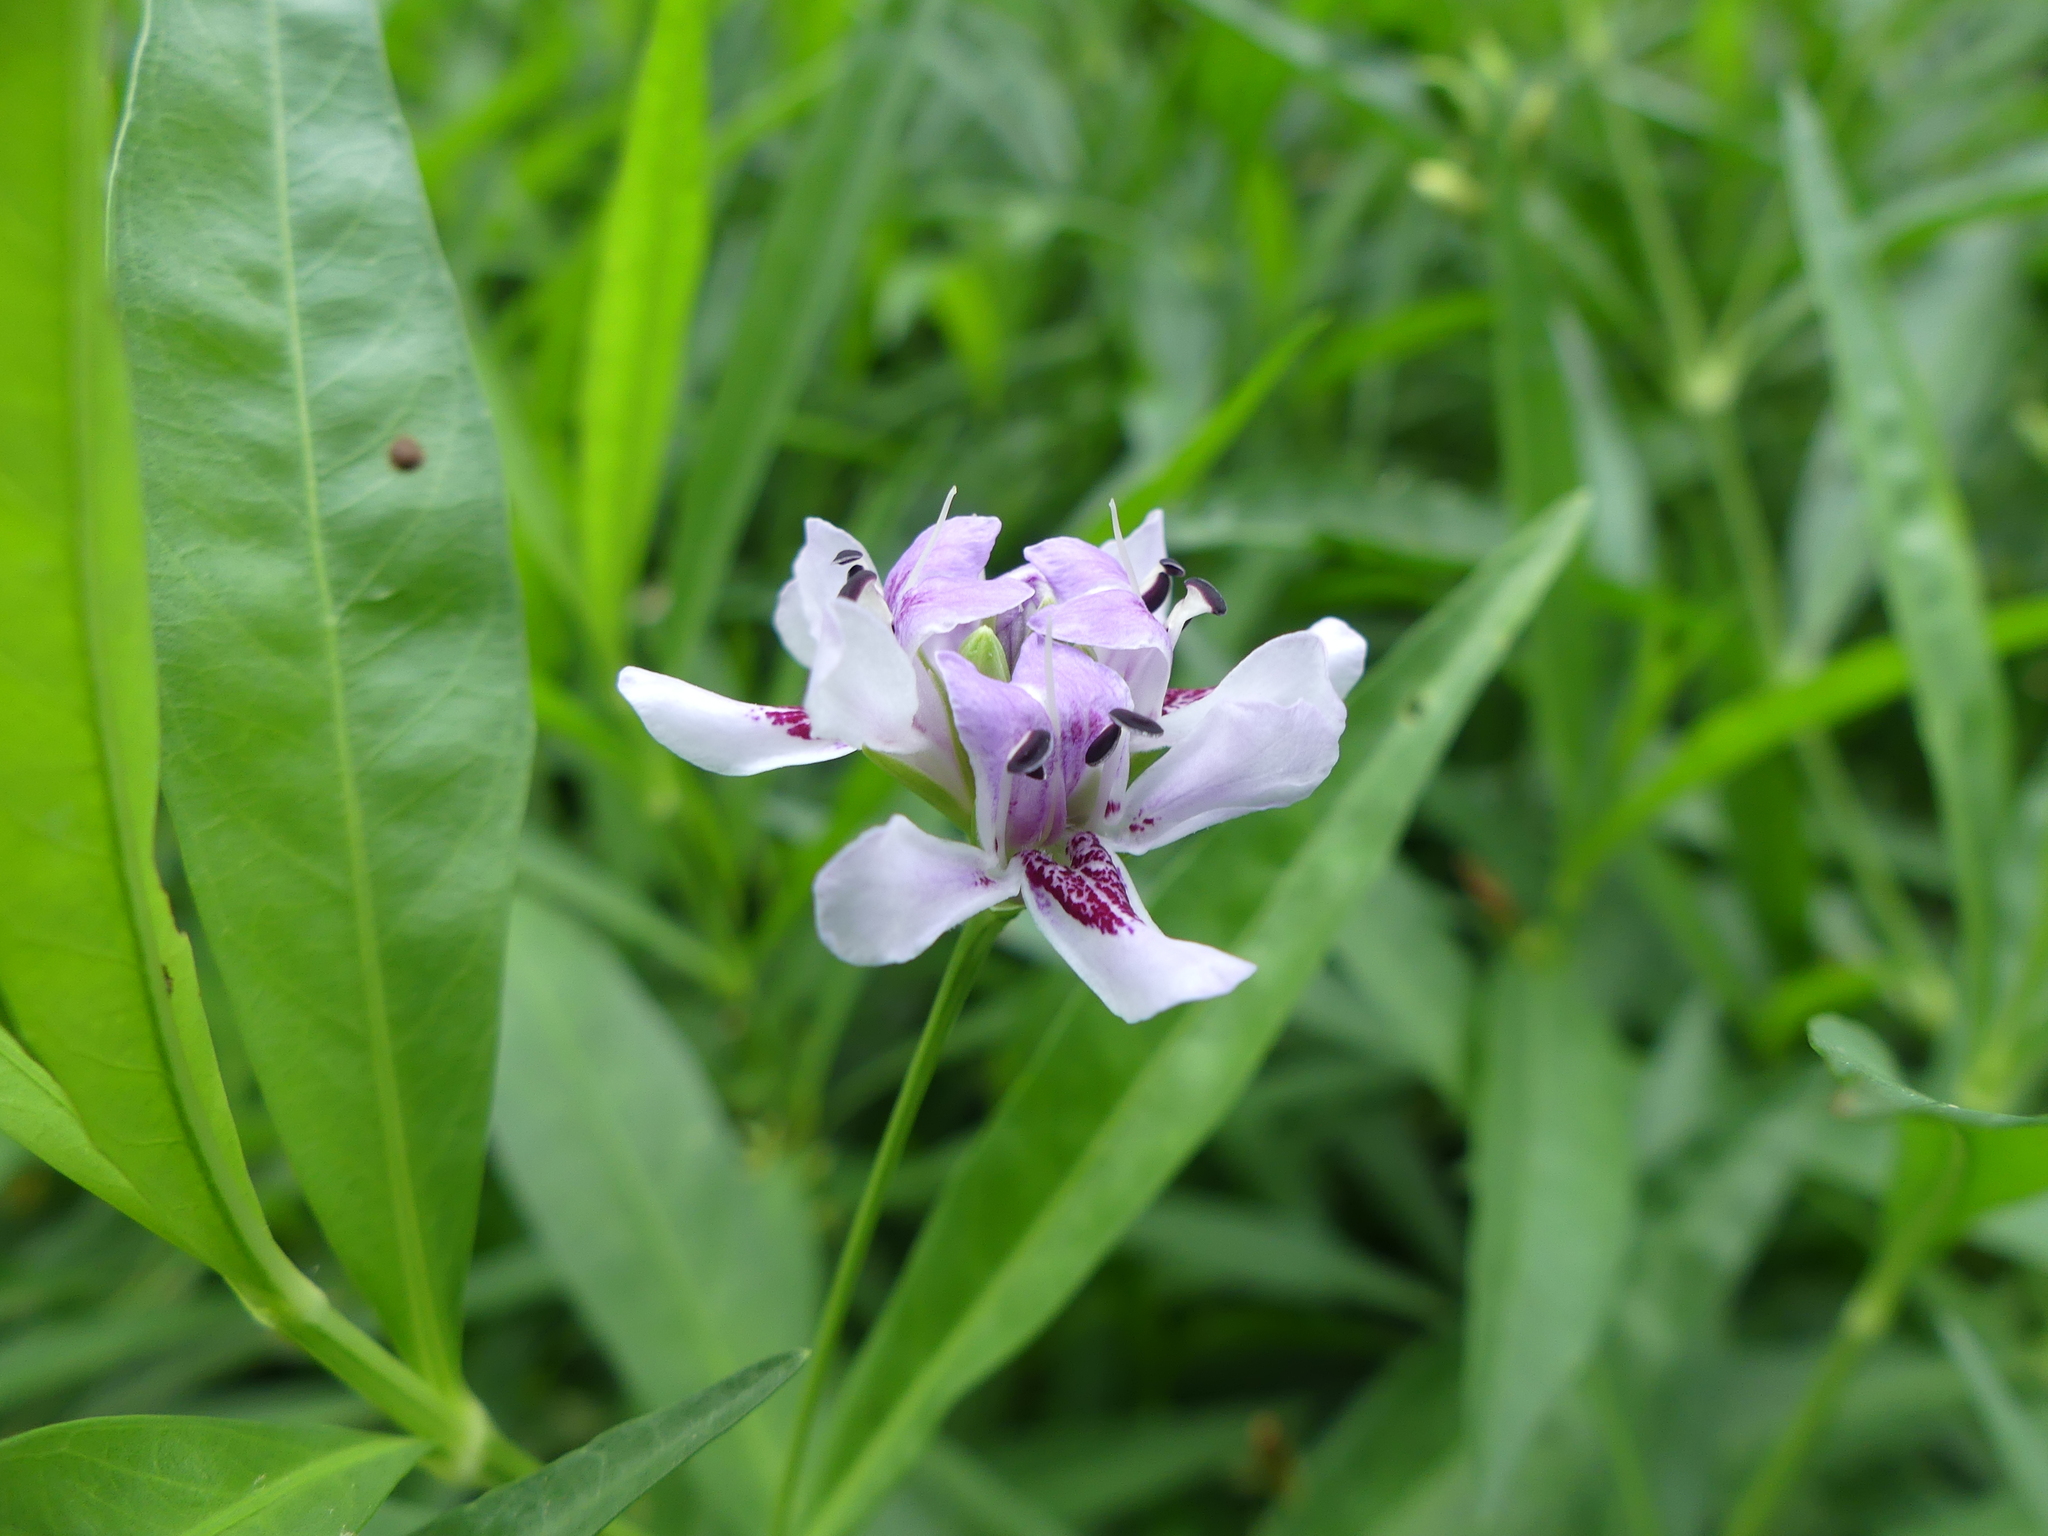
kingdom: Plantae
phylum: Tracheophyta
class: Magnoliopsida
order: Lamiales
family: Acanthaceae
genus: Dianthera
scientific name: Dianthera americana
